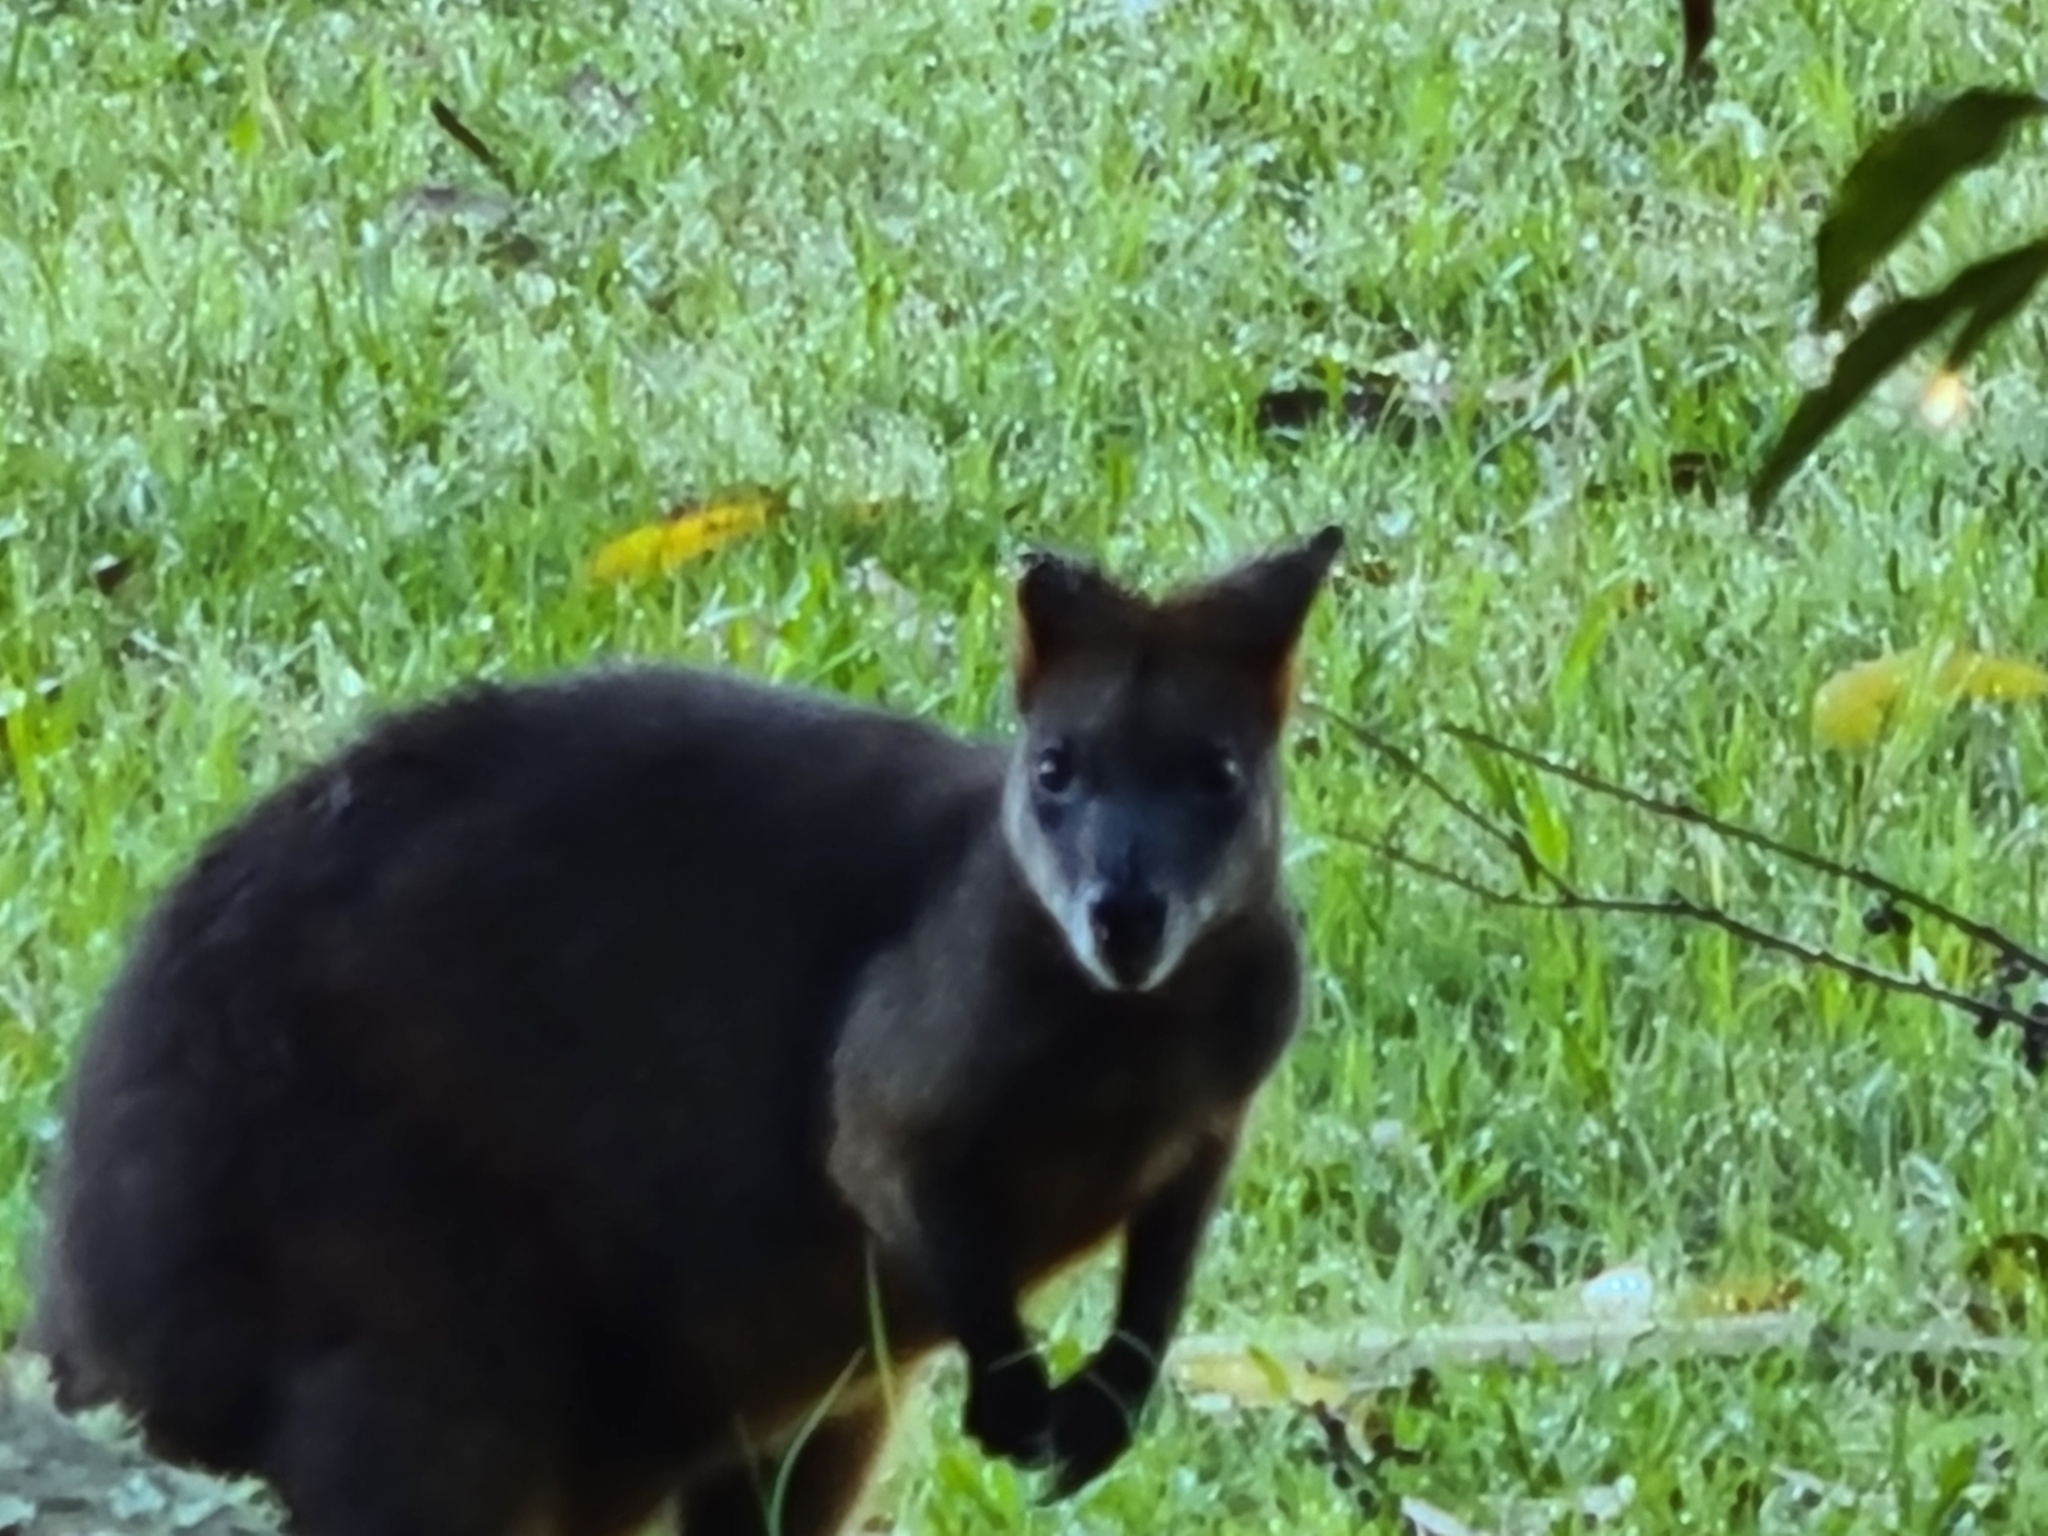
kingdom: Animalia
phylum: Chordata
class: Mammalia
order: Diprotodontia
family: Macropodidae
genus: Wallabia
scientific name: Wallabia bicolor
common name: Swamp wallaby
